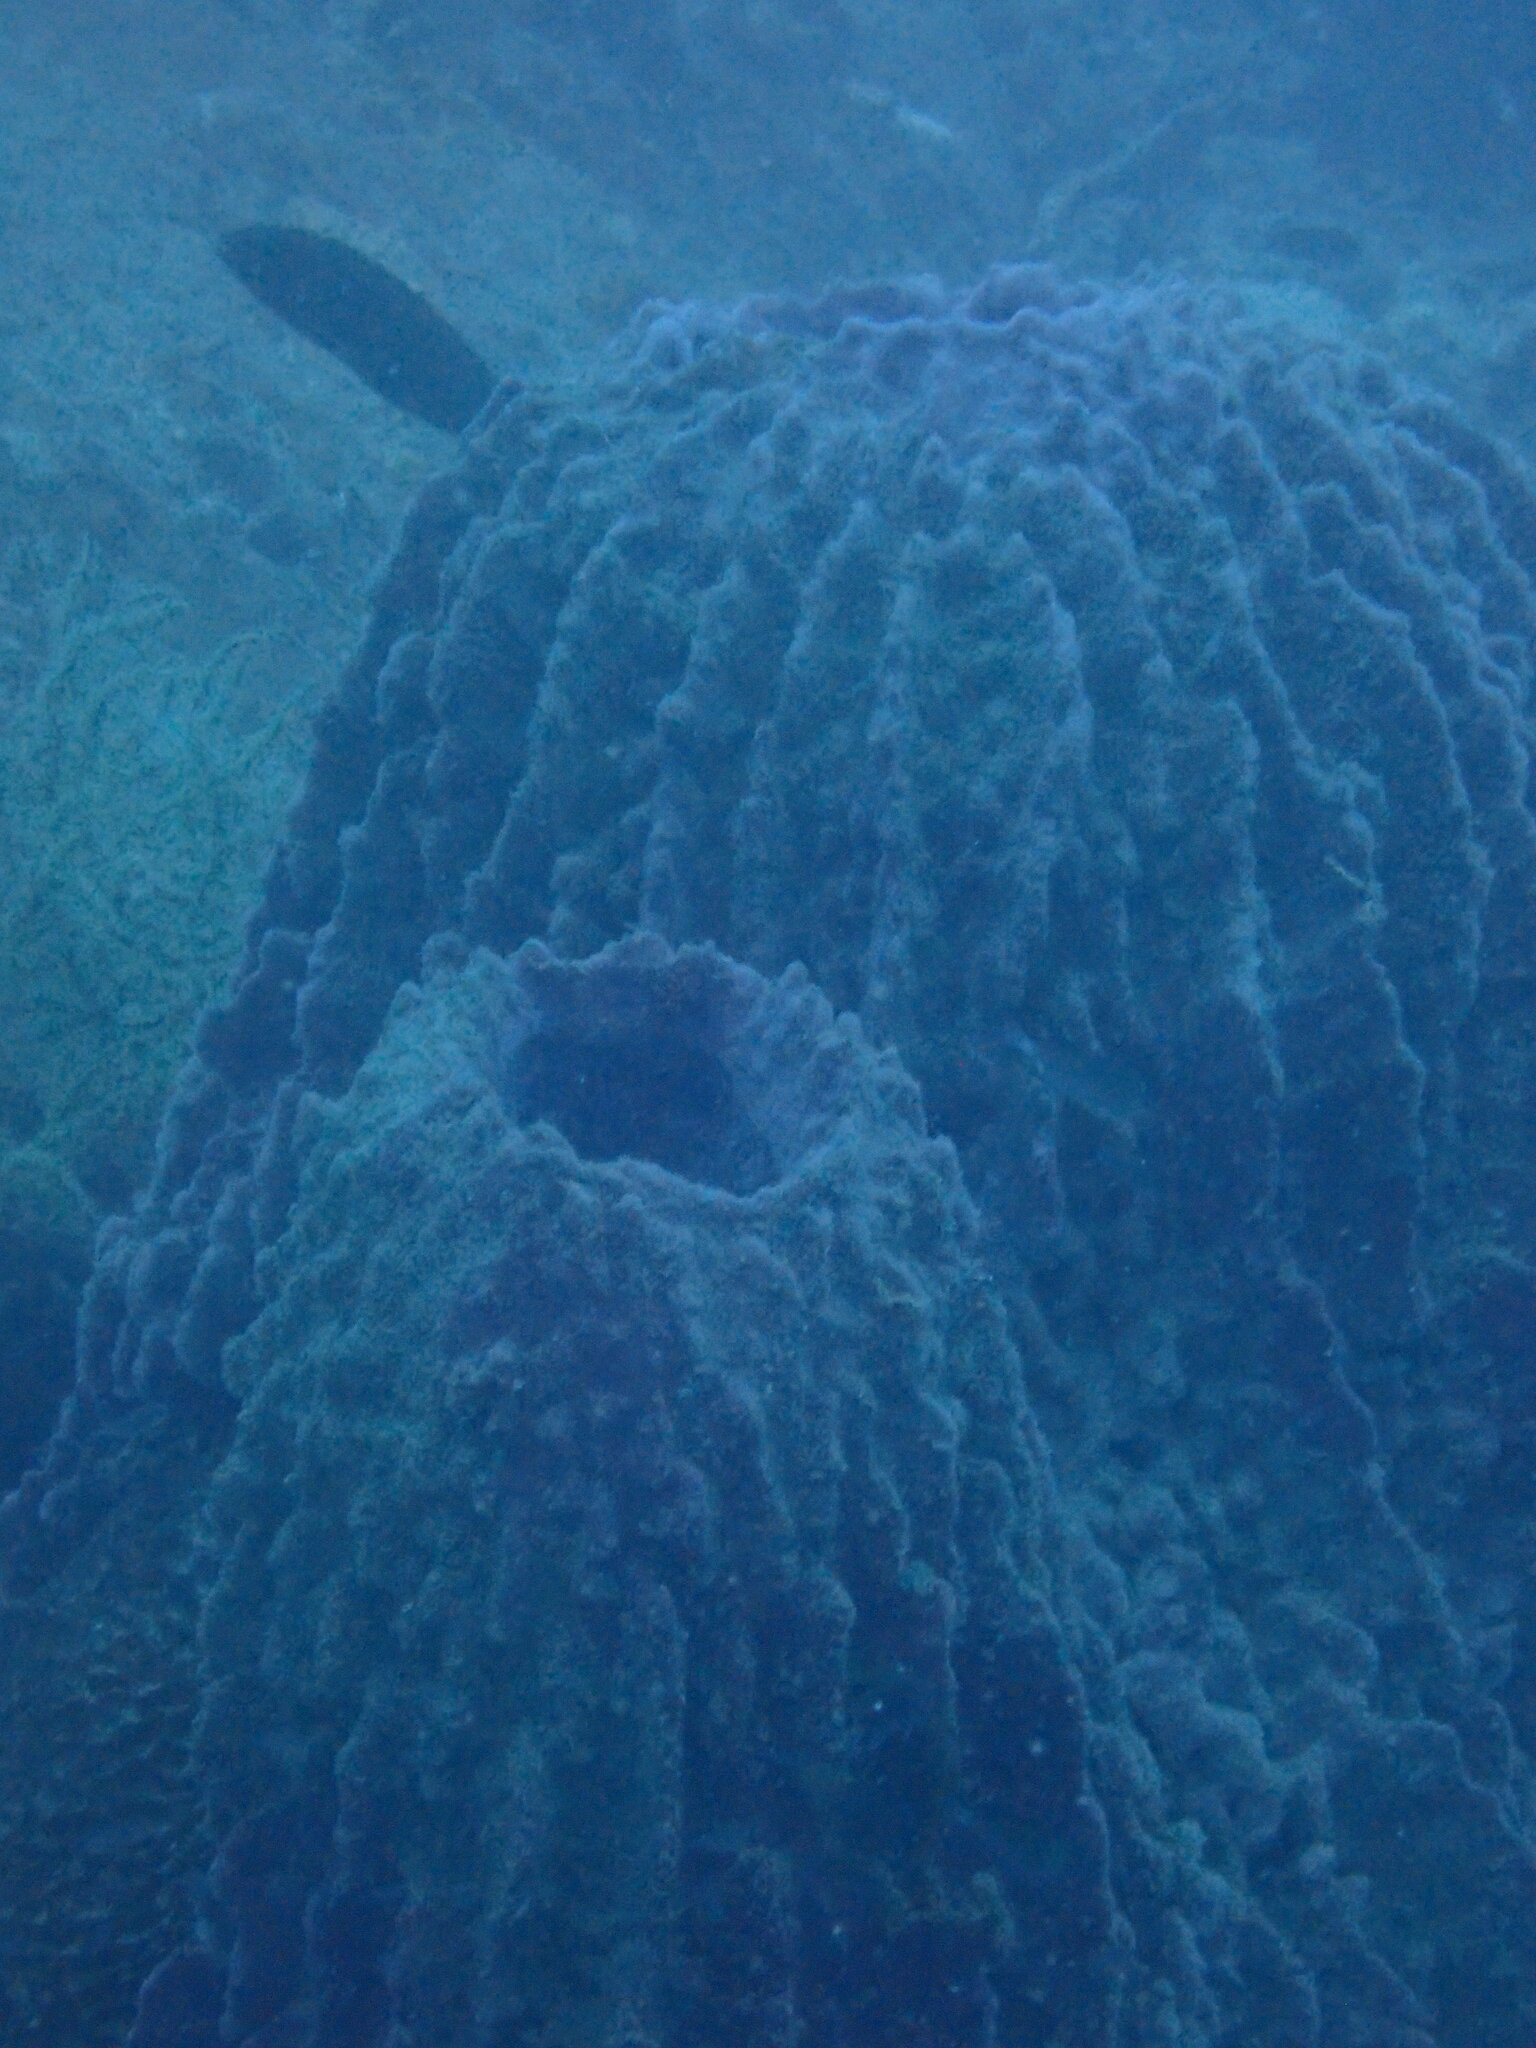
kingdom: Animalia
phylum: Porifera
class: Demospongiae
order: Haplosclerida
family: Petrosiidae
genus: Xestospongia
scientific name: Xestospongia testudinaria
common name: Barrel sponge
